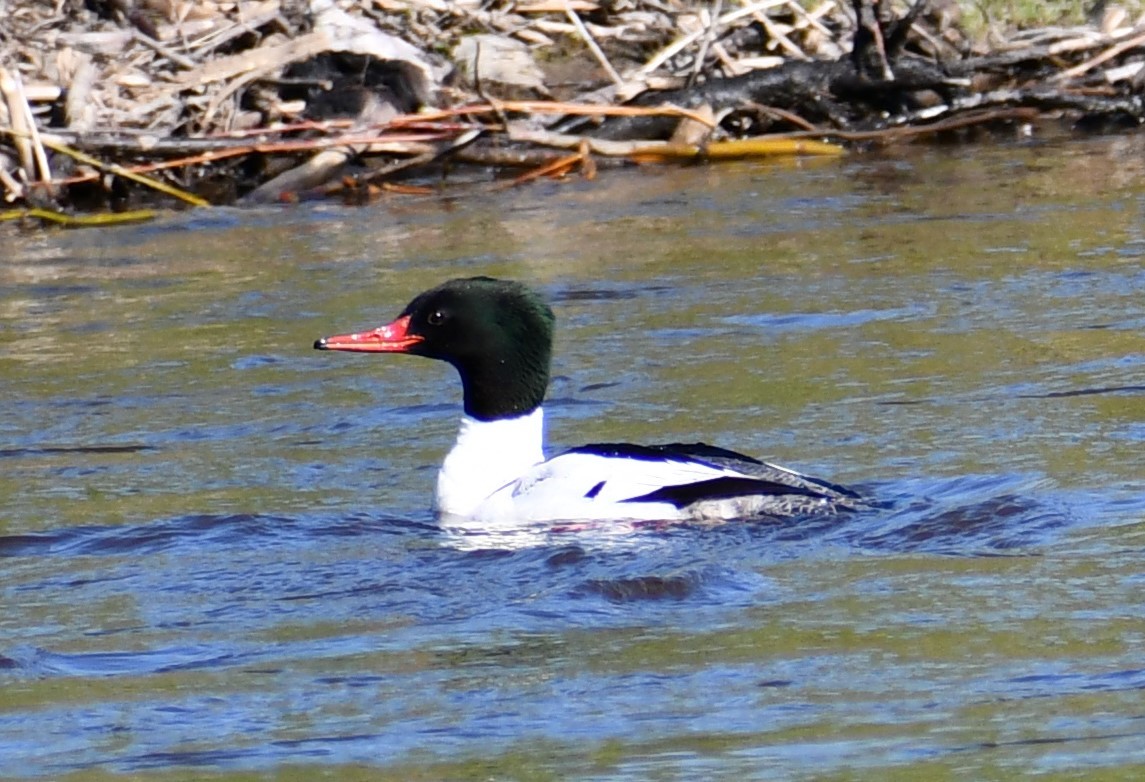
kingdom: Animalia
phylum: Chordata
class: Aves
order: Anseriformes
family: Anatidae
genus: Mergus
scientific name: Mergus merganser
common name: Common merganser
